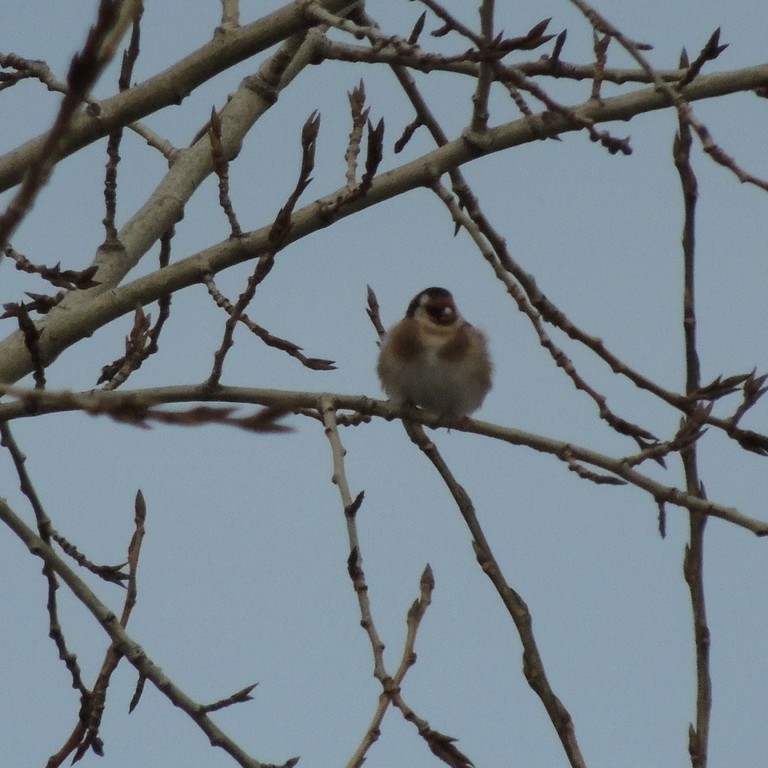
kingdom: Animalia
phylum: Chordata
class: Aves
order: Passeriformes
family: Fringillidae
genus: Carduelis
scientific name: Carduelis carduelis
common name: European goldfinch
